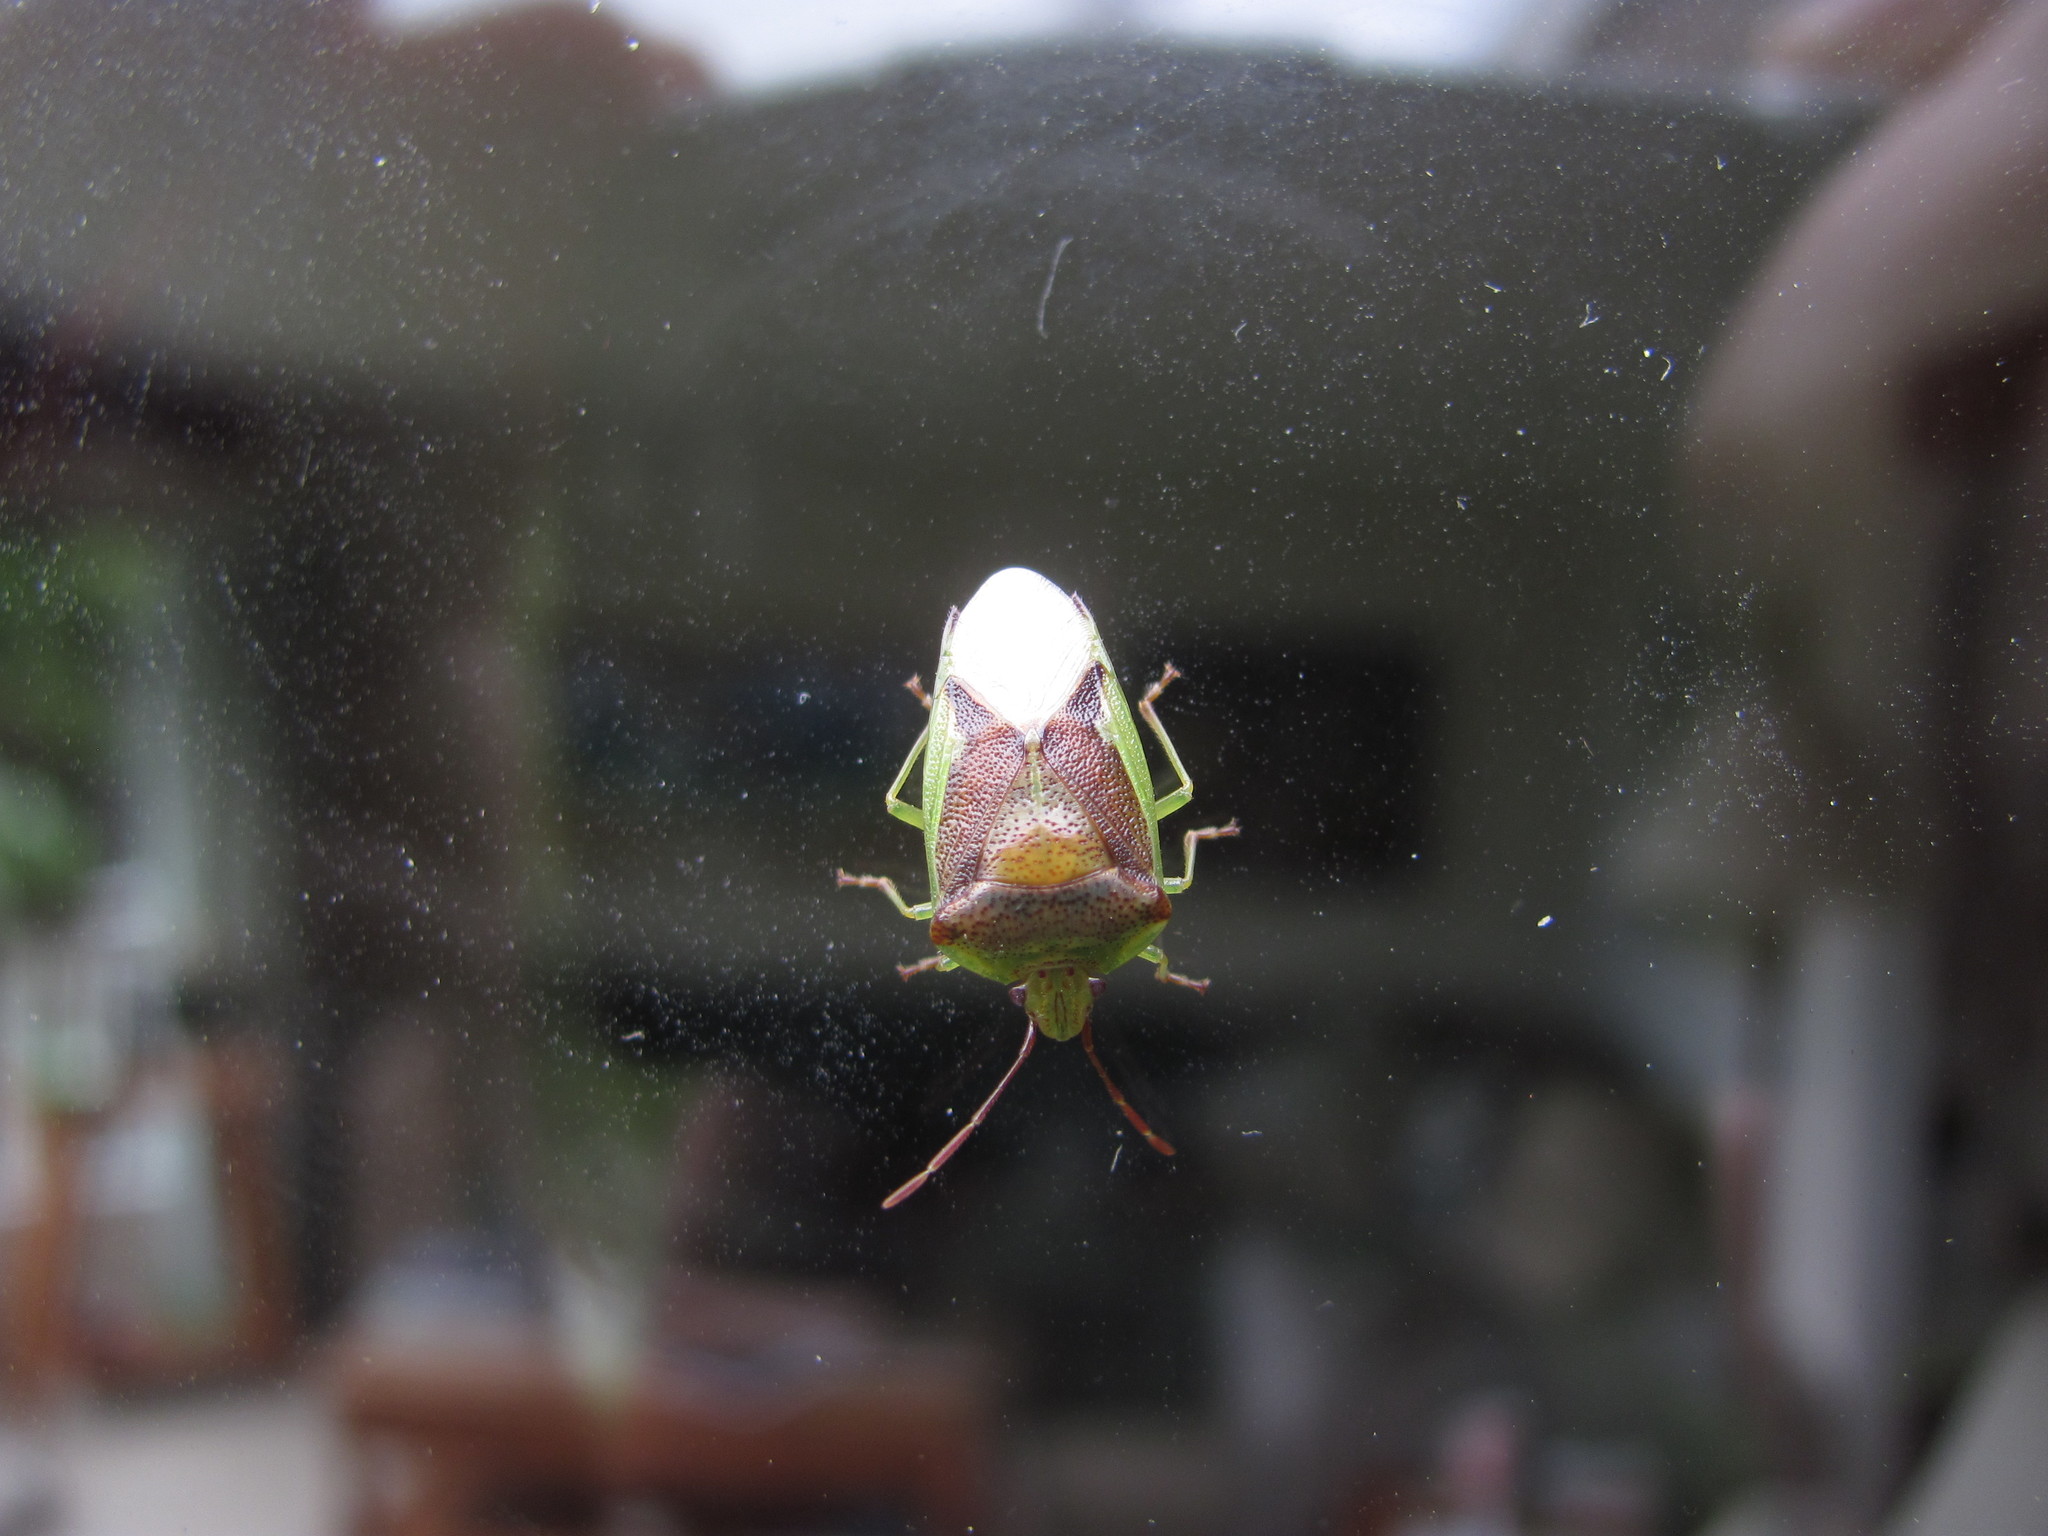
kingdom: Animalia
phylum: Arthropoda
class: Insecta
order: Hemiptera
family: Acanthosomatidae
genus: Oncacontias
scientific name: Oncacontias vittatus
